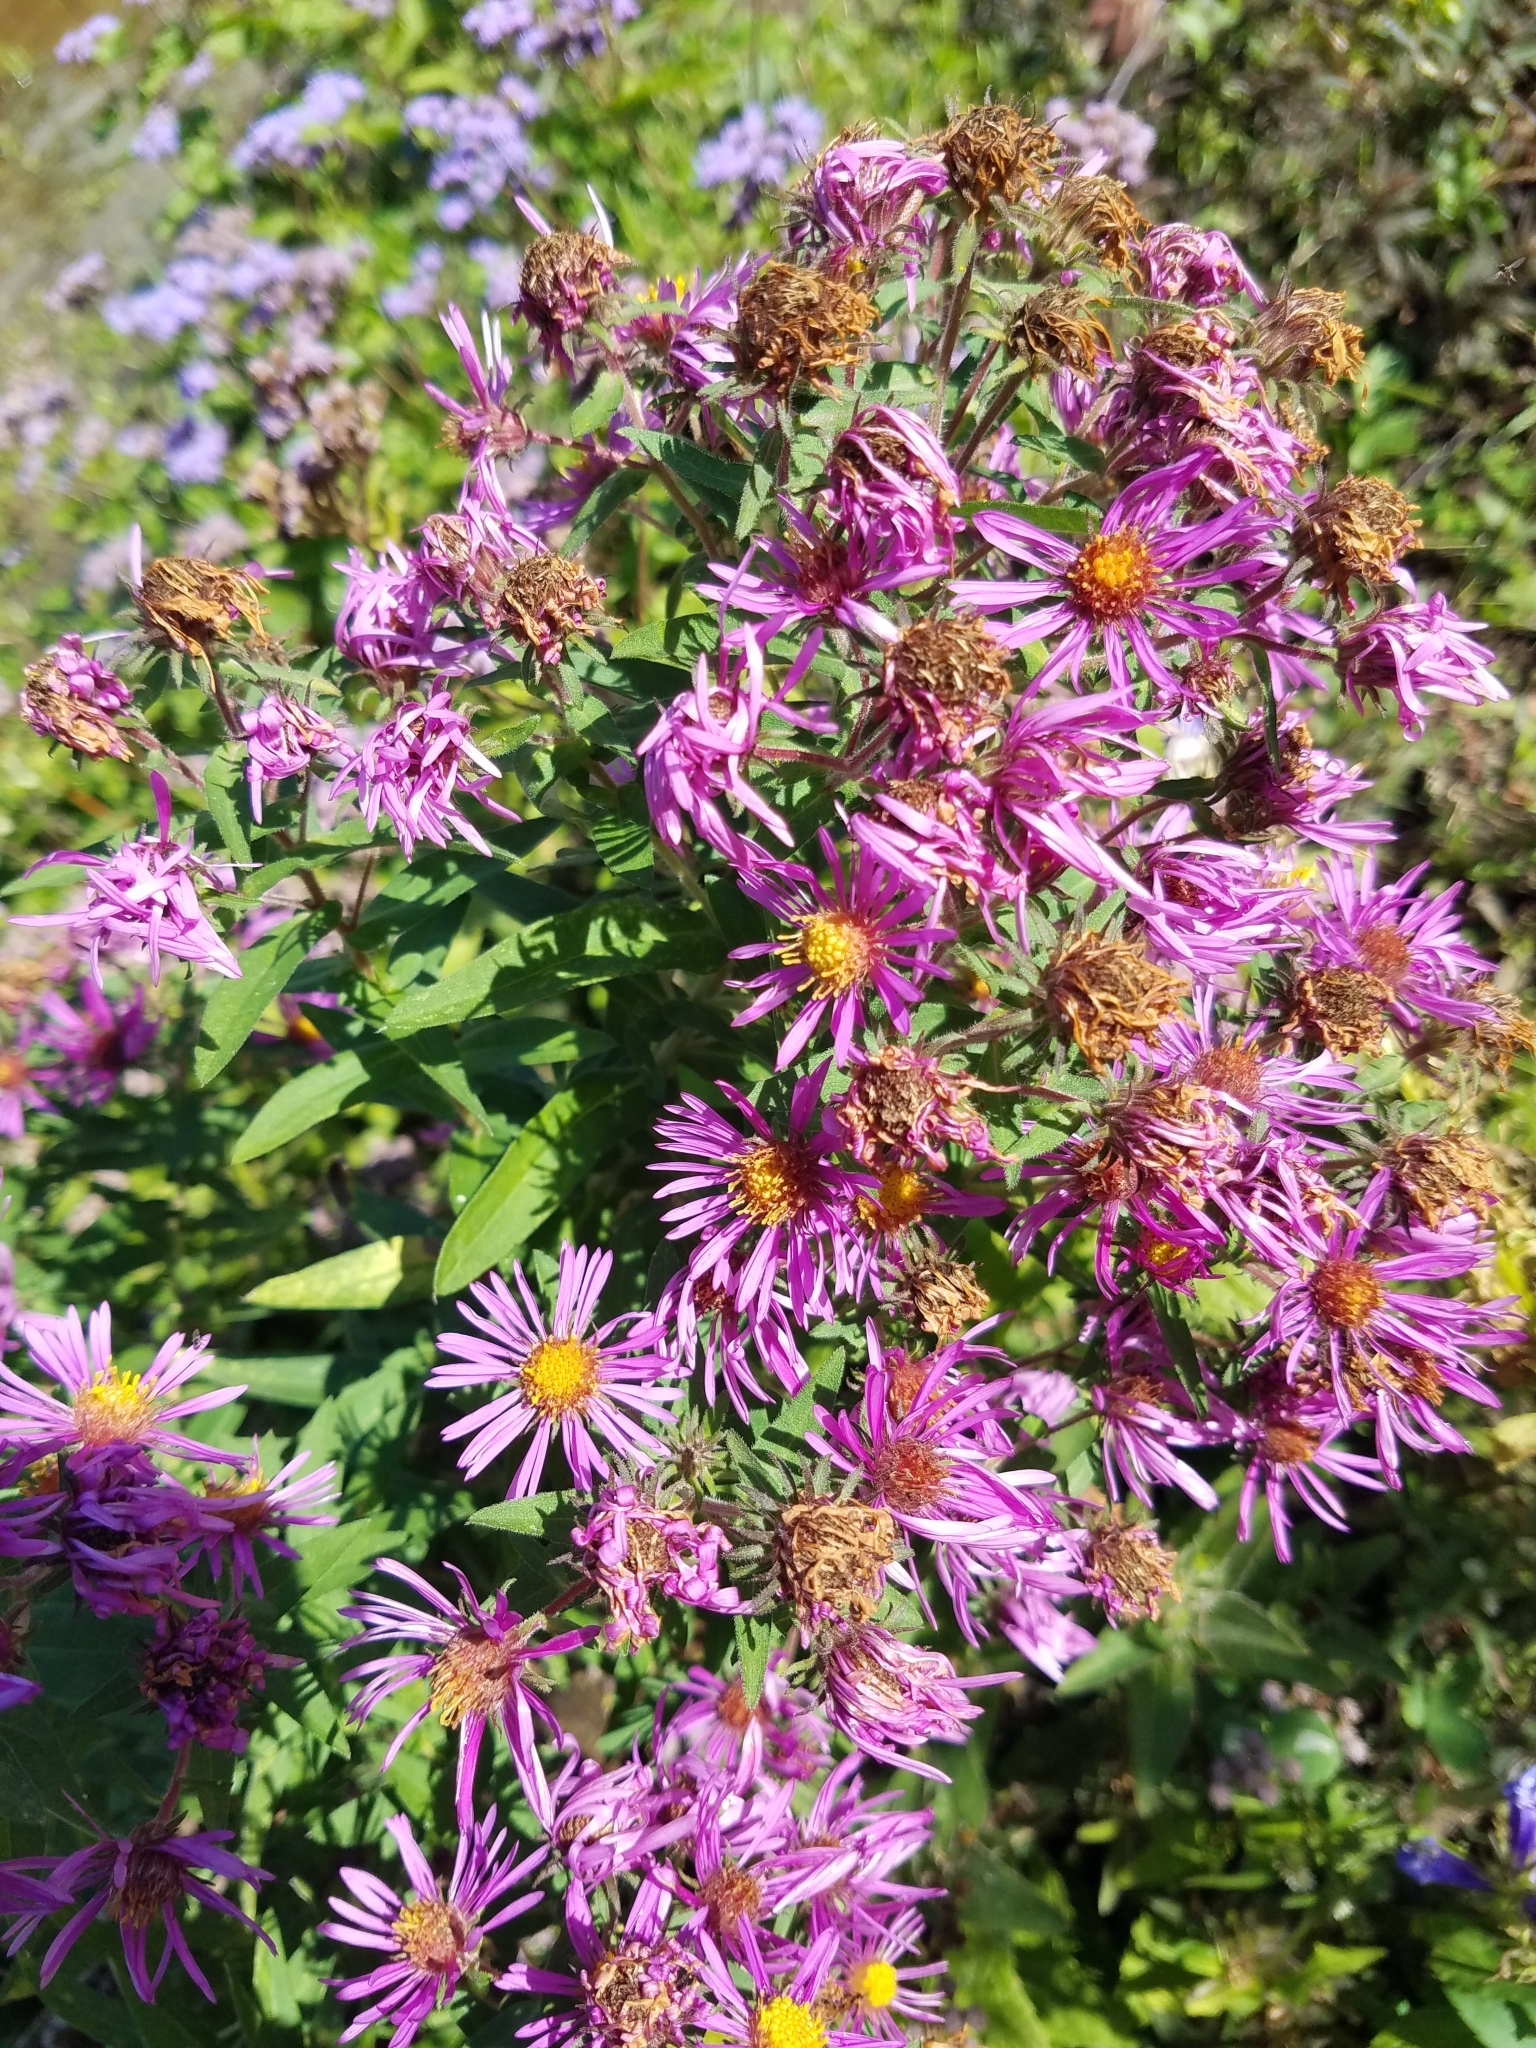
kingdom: Plantae
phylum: Tracheophyta
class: Magnoliopsida
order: Asterales
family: Asteraceae
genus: Symphyotrichum
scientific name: Symphyotrichum novae-angliae
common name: Michaelmas daisy
